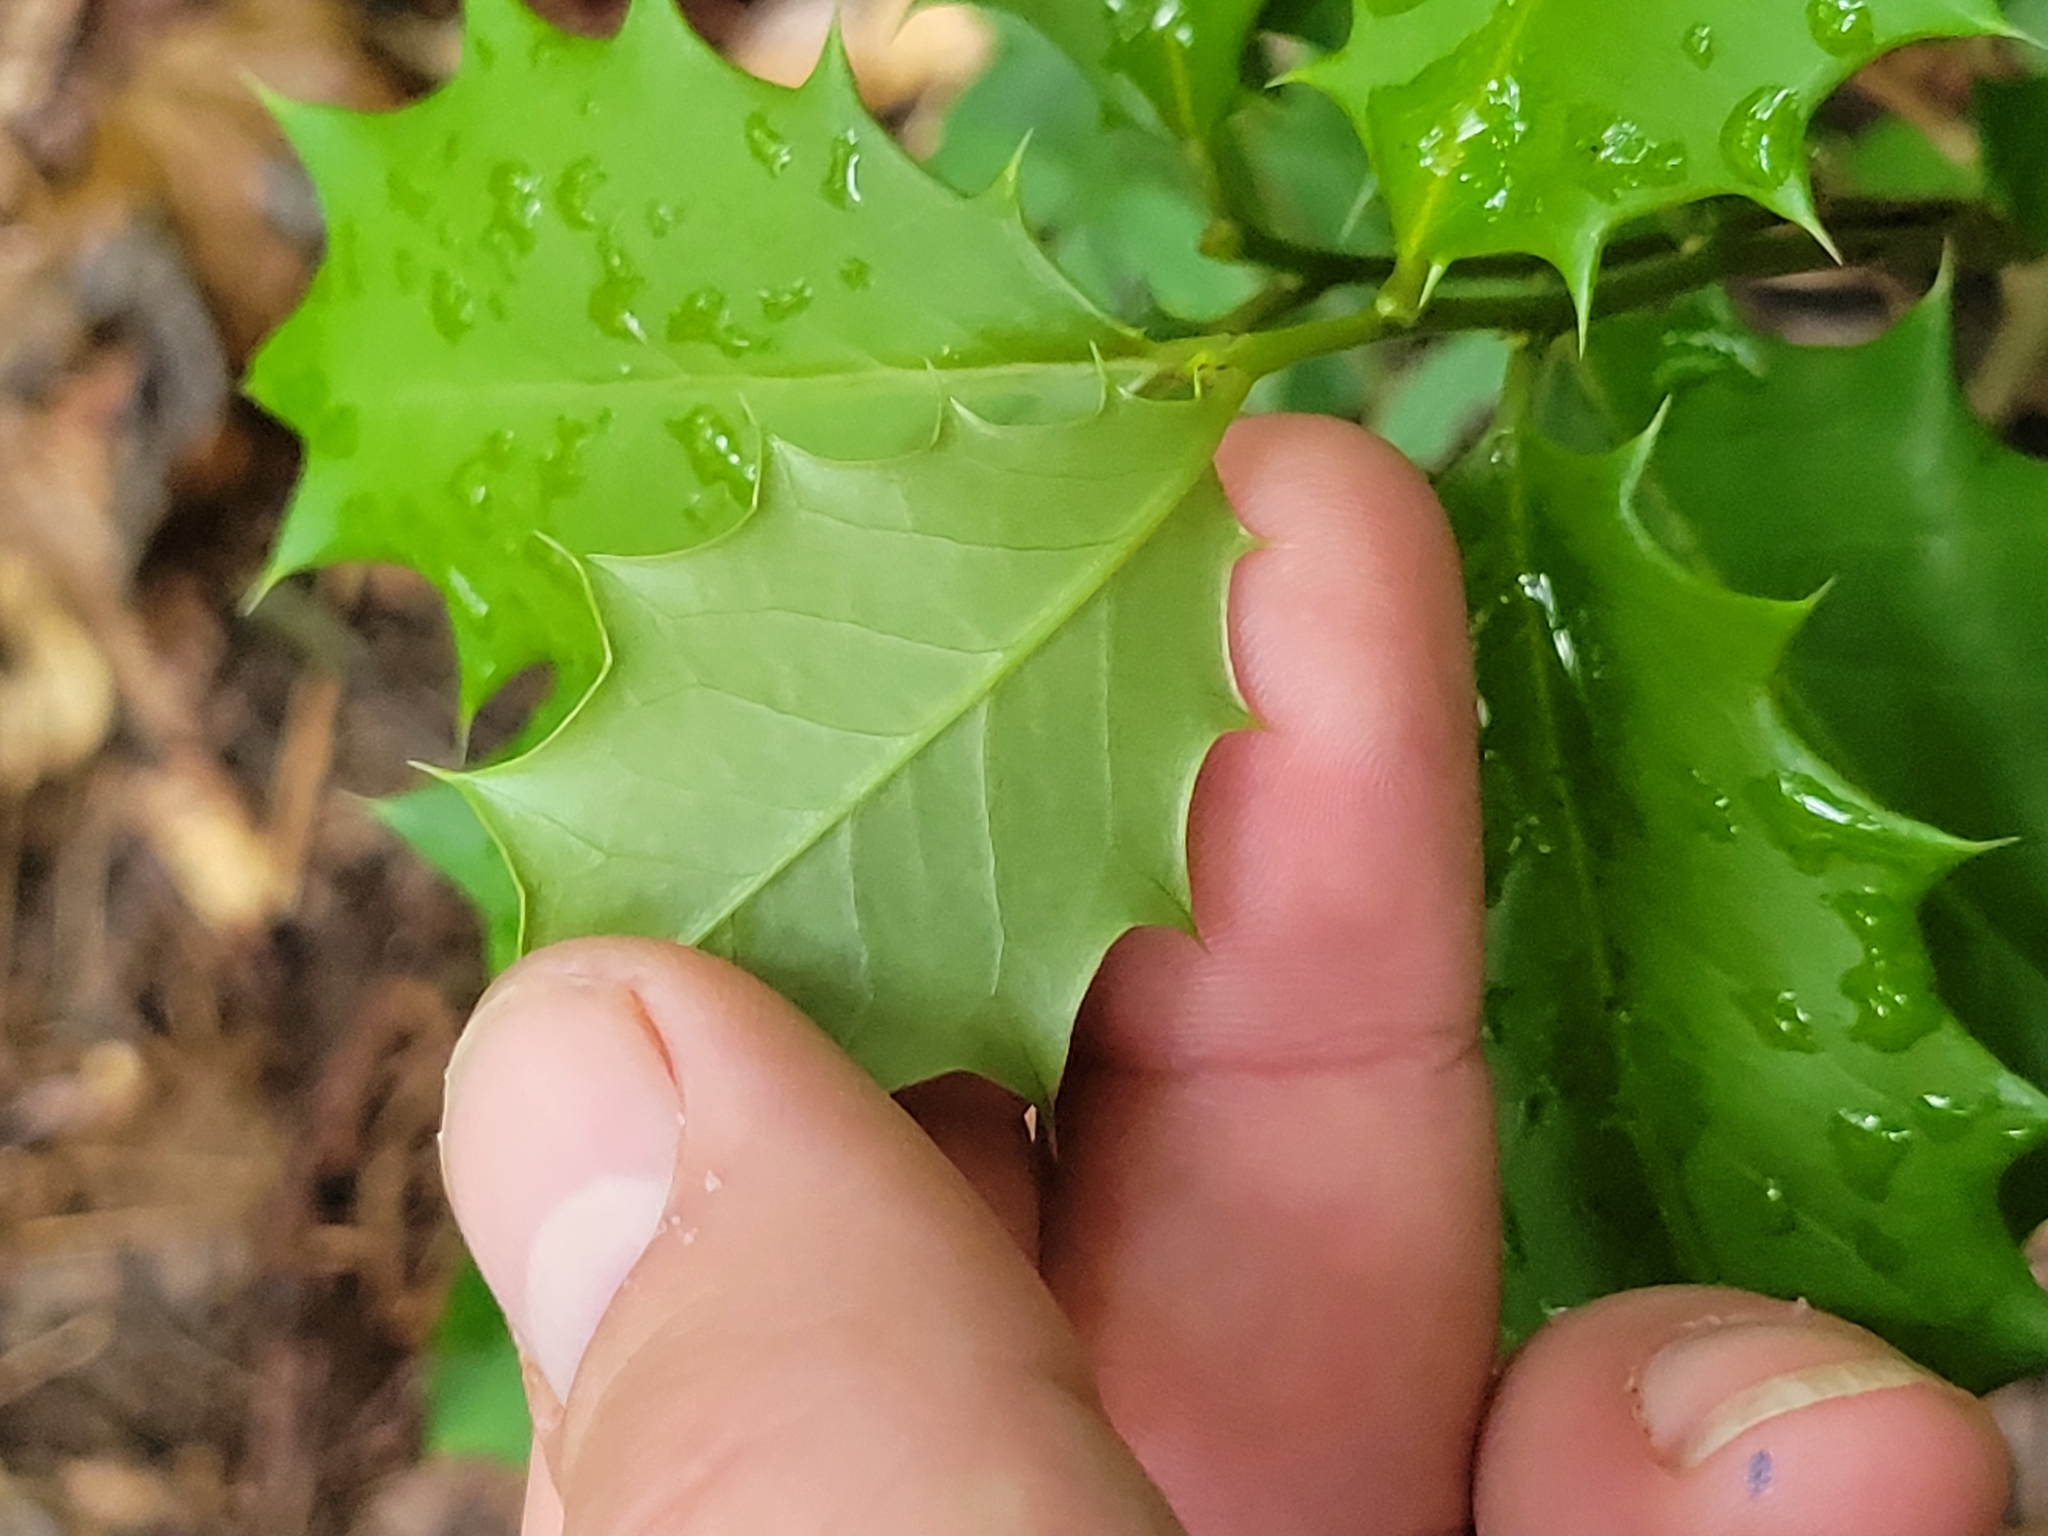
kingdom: Plantae
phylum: Tracheophyta
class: Magnoliopsida
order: Aquifoliales
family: Aquifoliaceae
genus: Ilex
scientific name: Ilex opaca
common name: American holly
